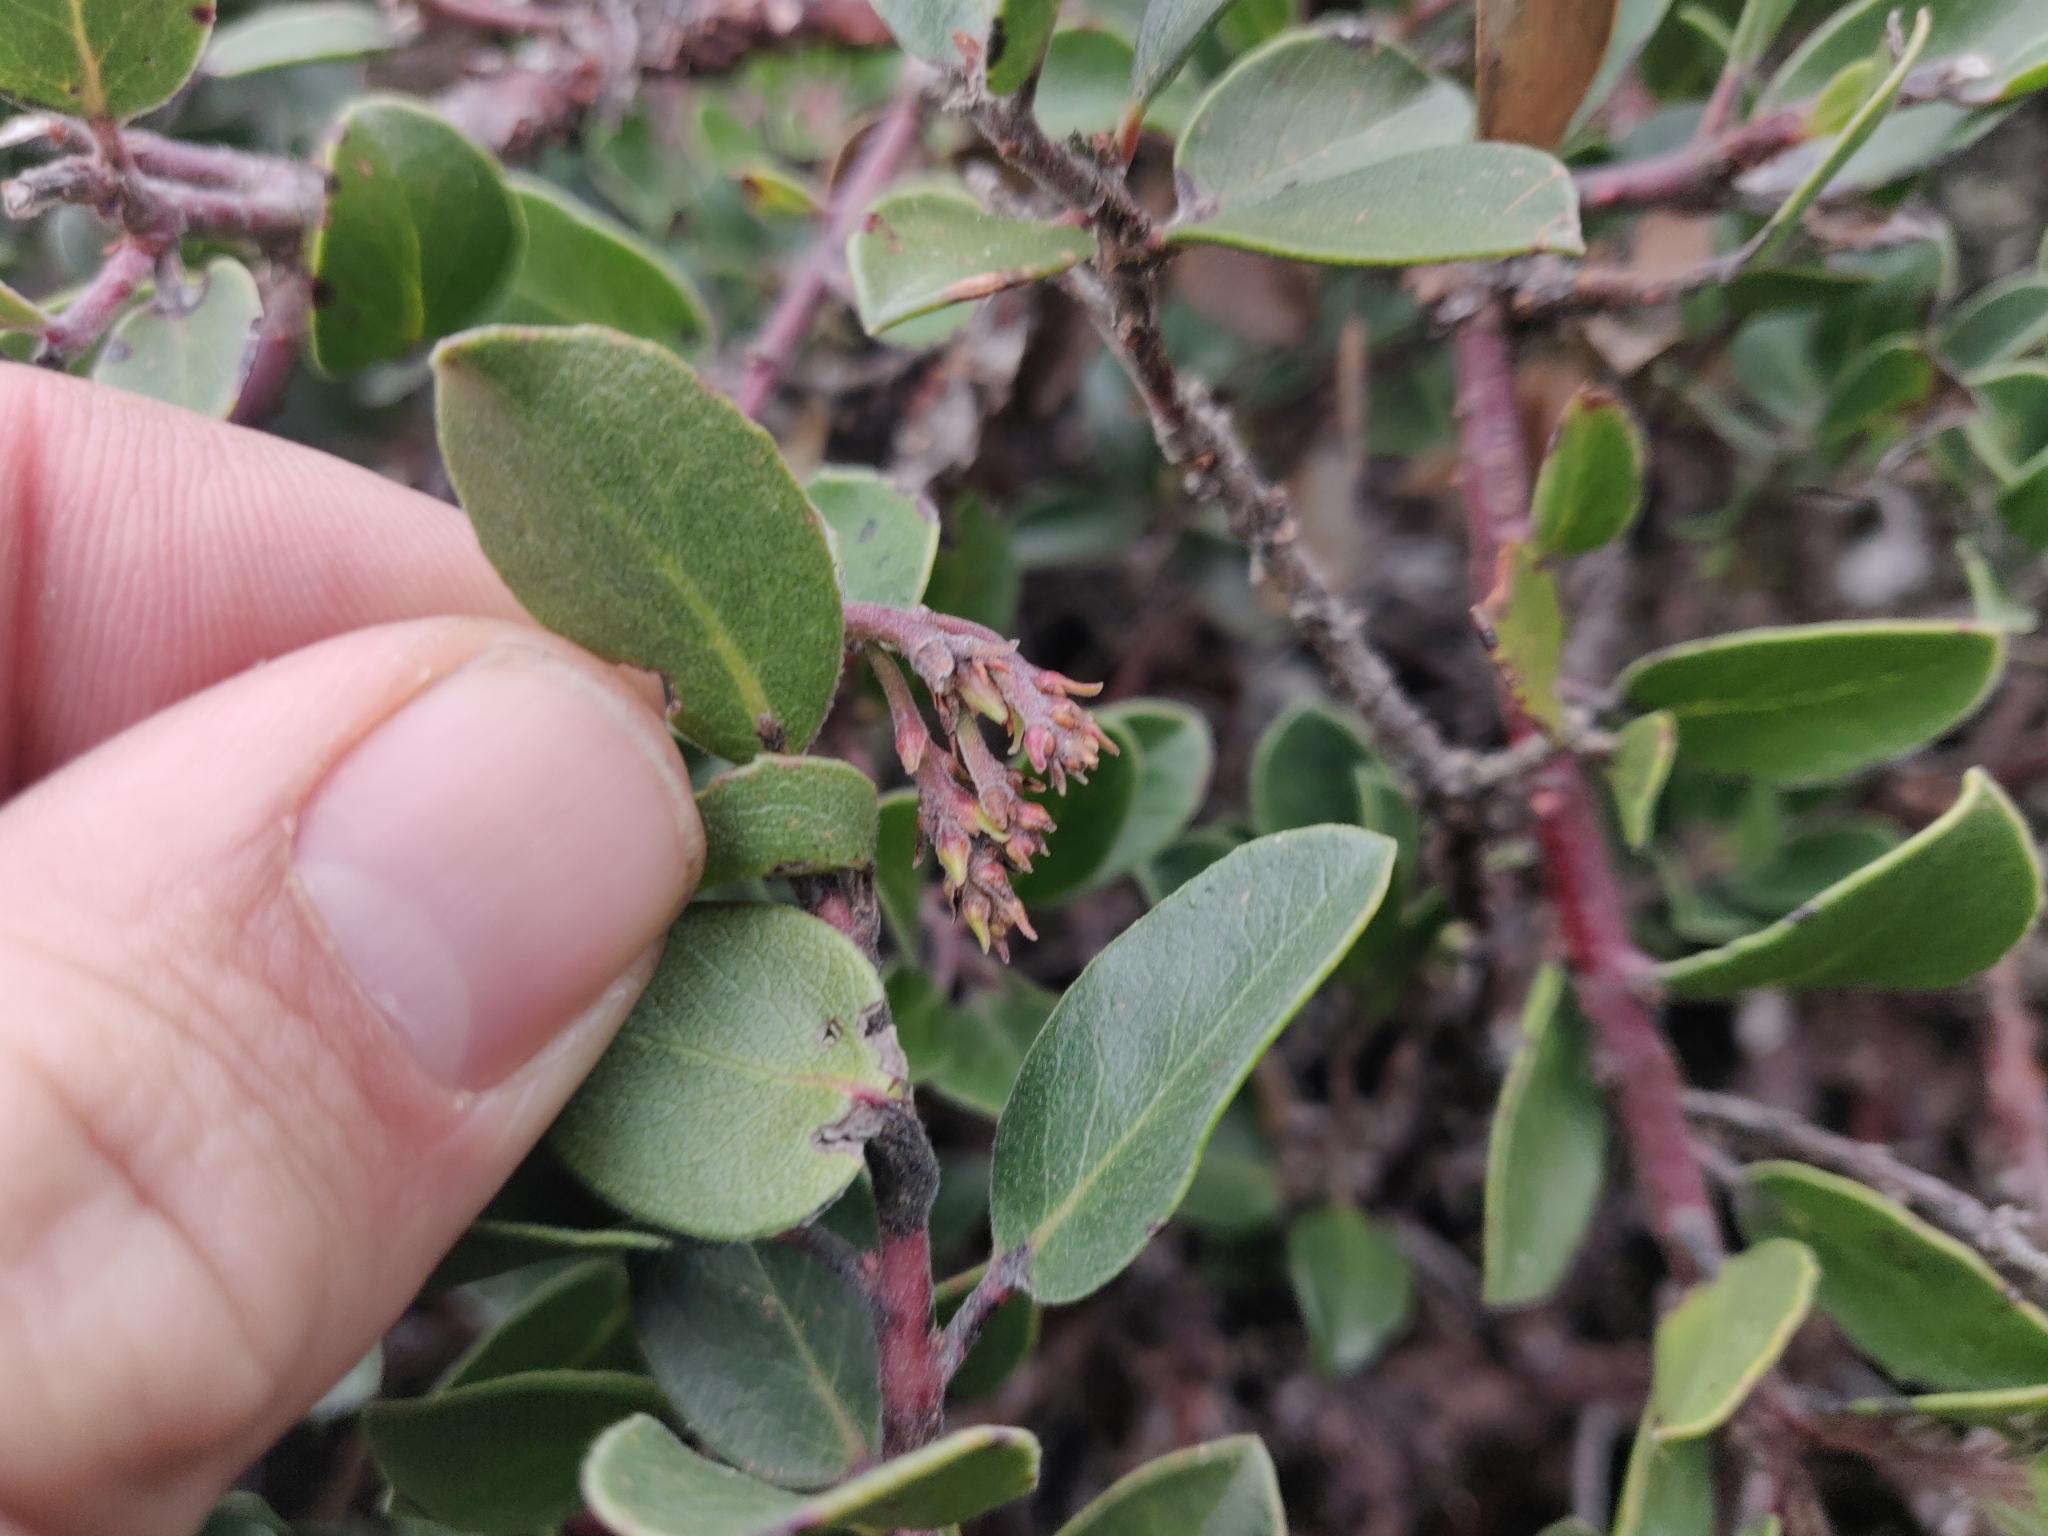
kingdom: Plantae
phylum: Tracheophyta
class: Magnoliopsida
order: Ericales
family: Ericaceae
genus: Arctostaphylos
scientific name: Arctostaphylos uva-ursi
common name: Bearberry
